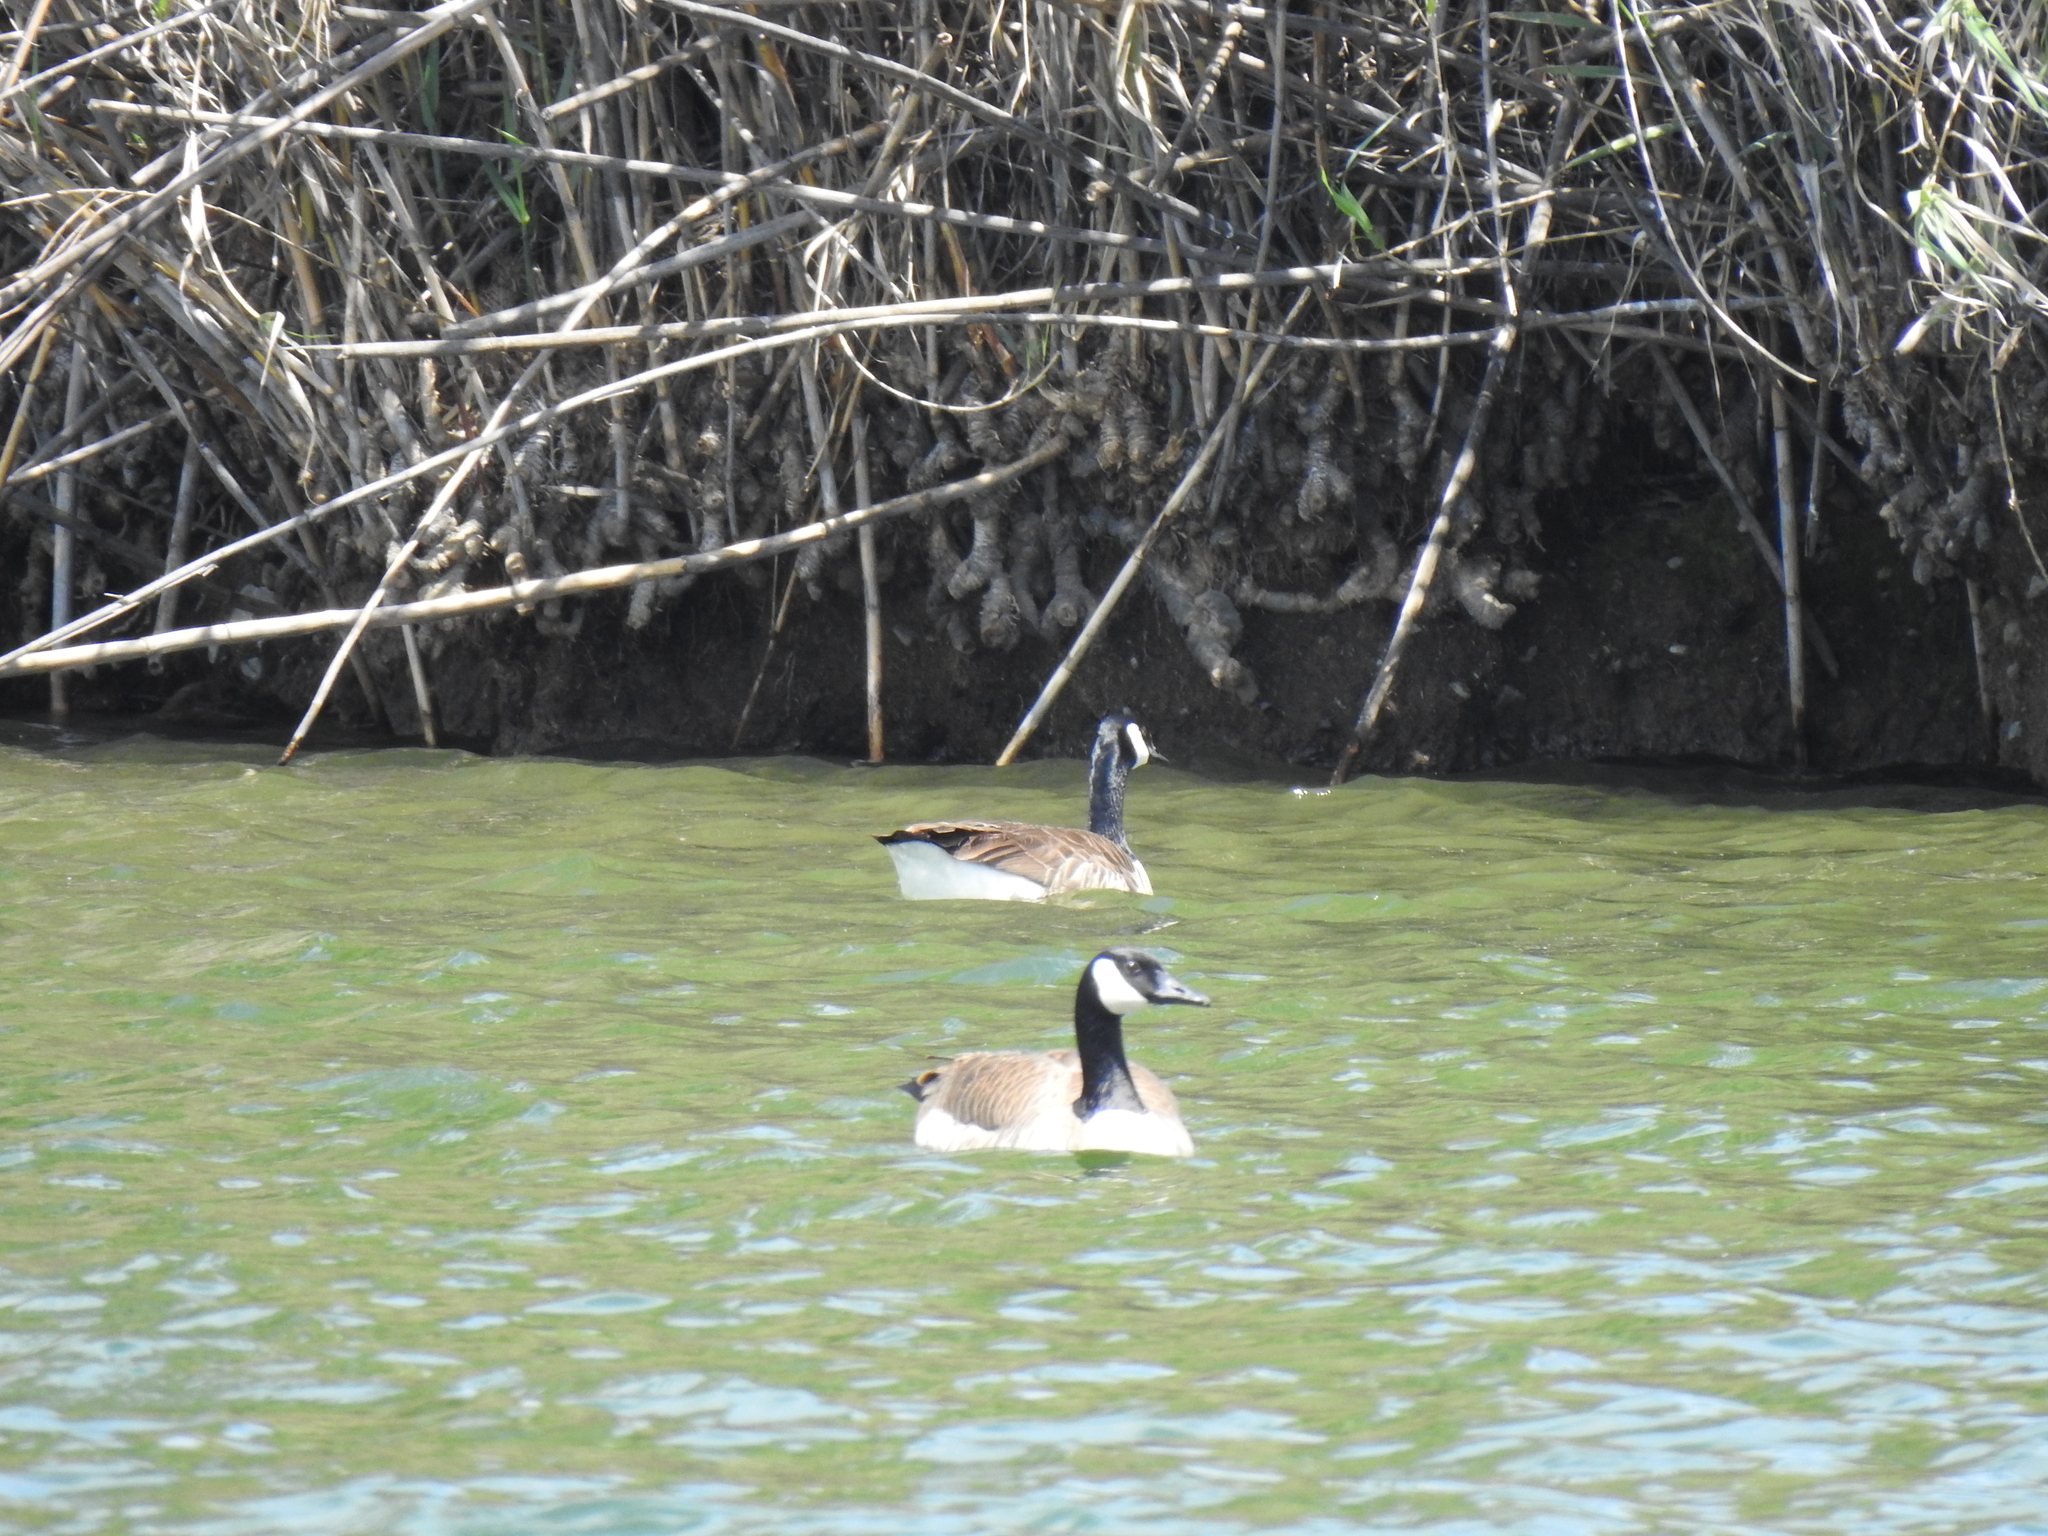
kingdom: Animalia
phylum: Chordata
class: Aves
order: Anseriformes
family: Anatidae
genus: Branta
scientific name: Branta canadensis
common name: Canada goose
